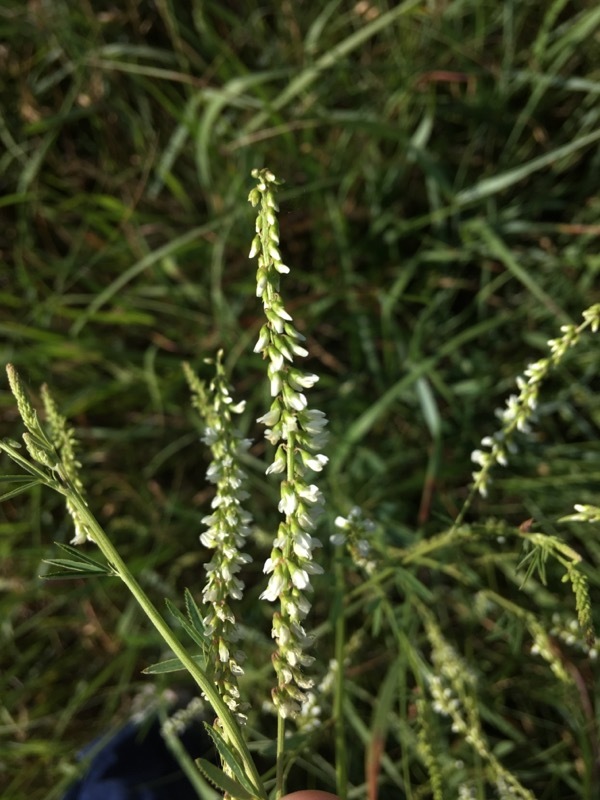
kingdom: Plantae
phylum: Tracheophyta
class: Magnoliopsida
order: Fabales
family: Fabaceae
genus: Melilotus
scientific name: Melilotus albus
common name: White melilot
